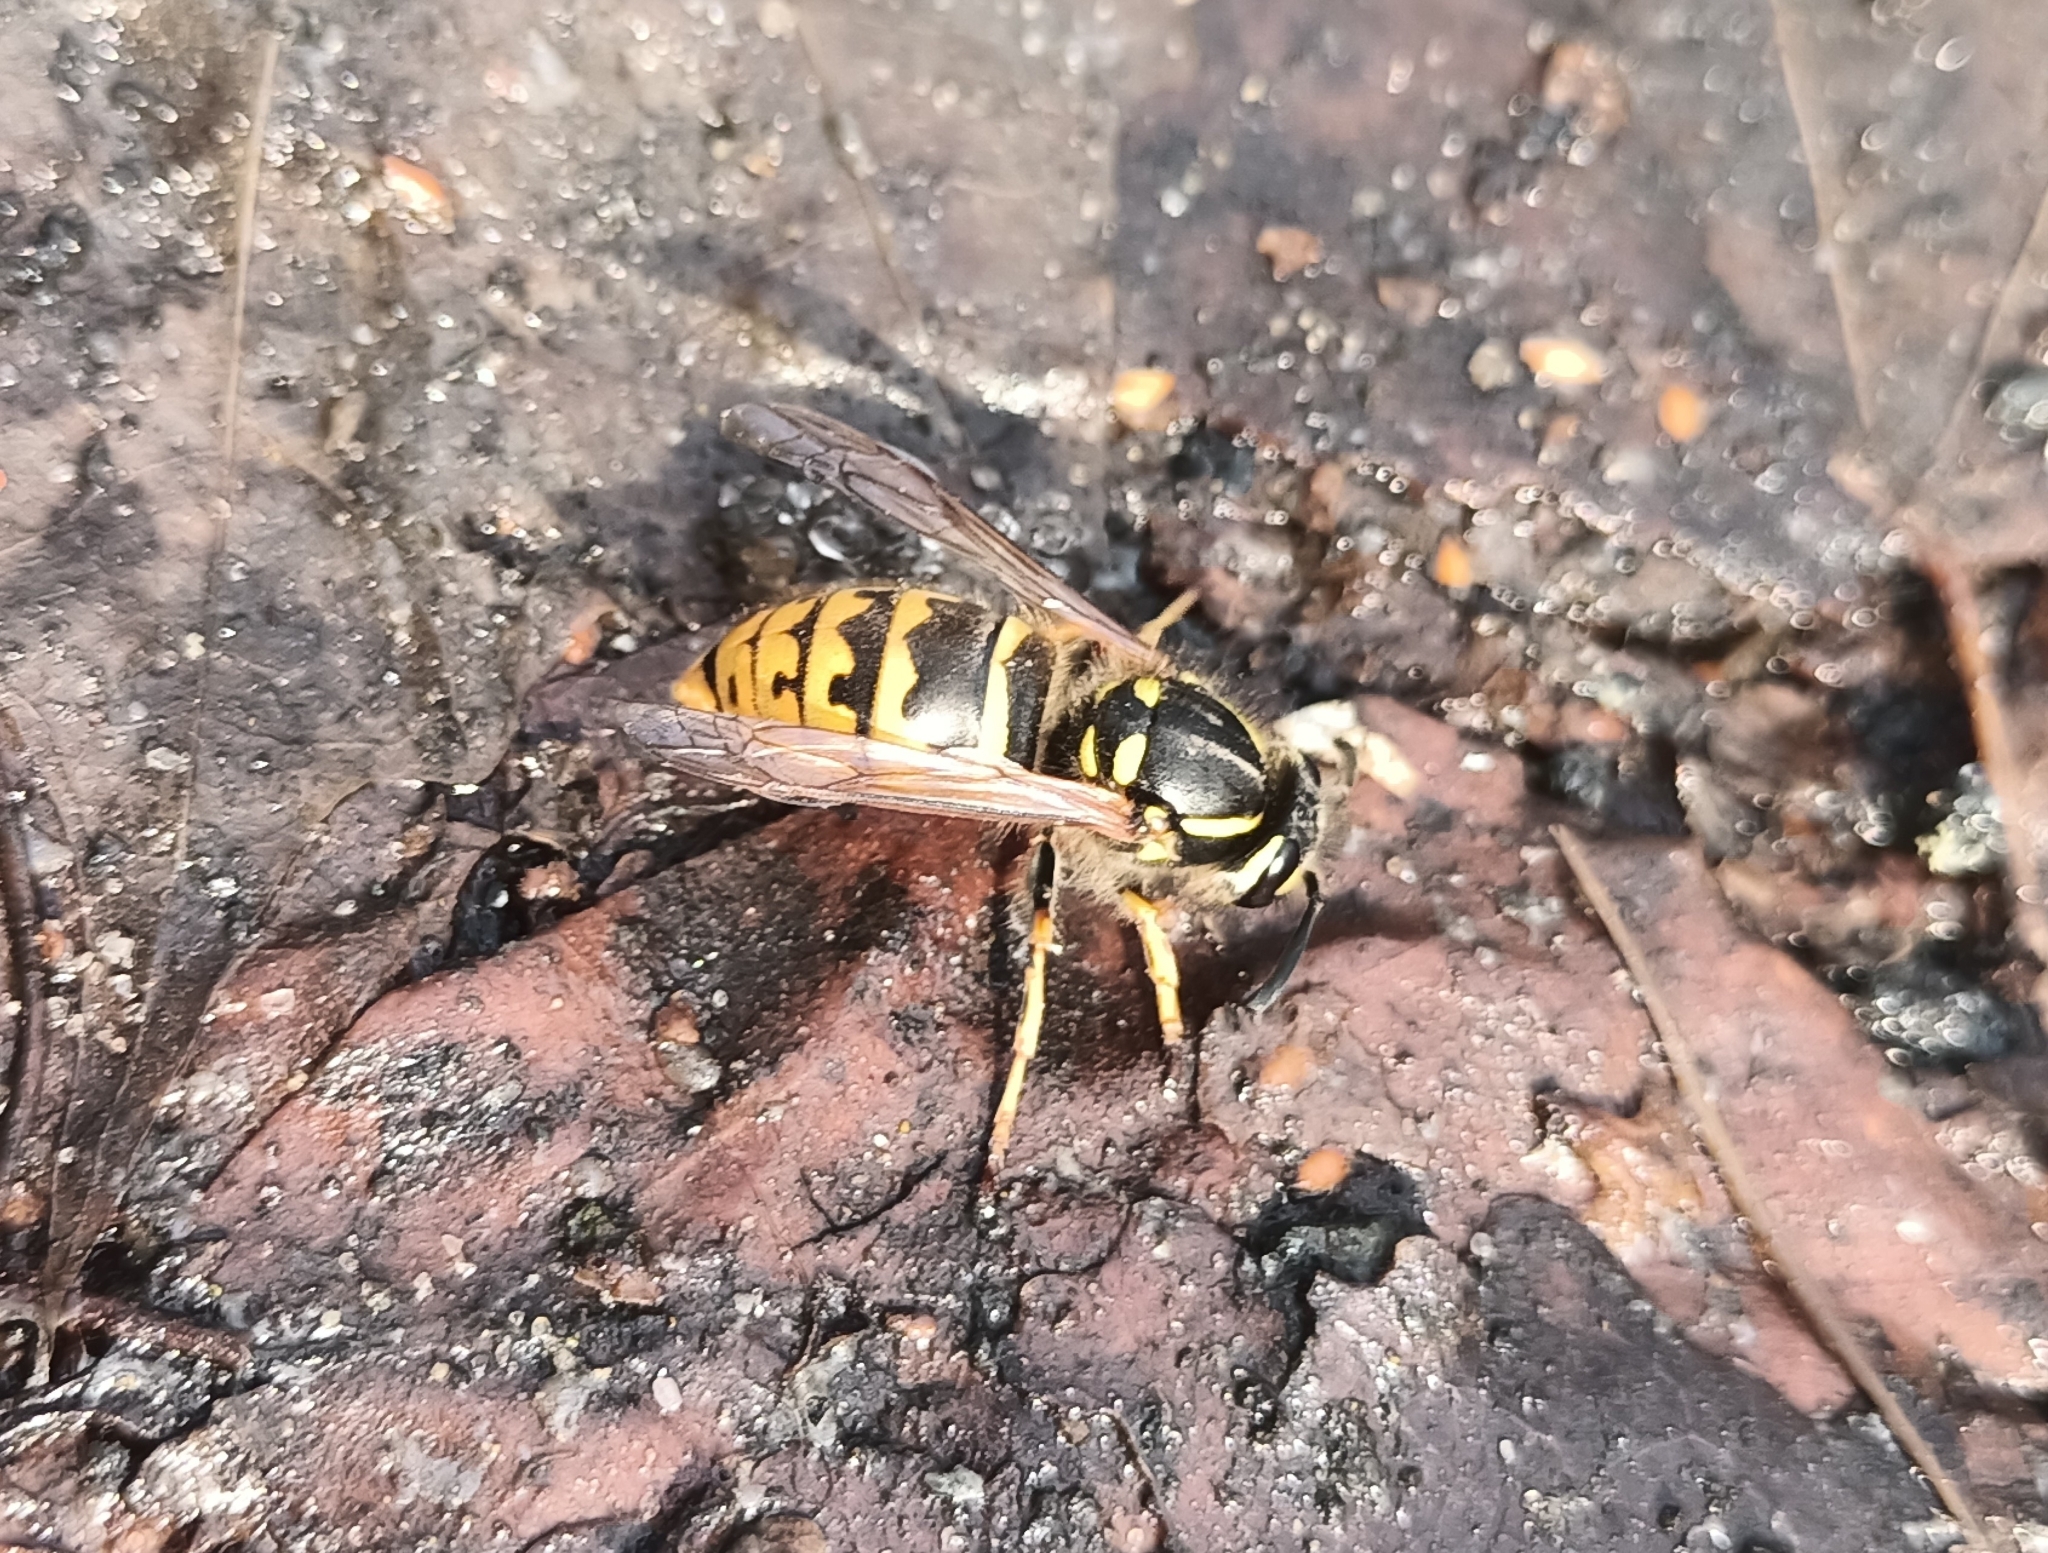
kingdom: Animalia
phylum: Arthropoda
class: Insecta
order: Hymenoptera
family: Vespidae
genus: Vespula
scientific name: Vespula vulgaris
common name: Common wasp
